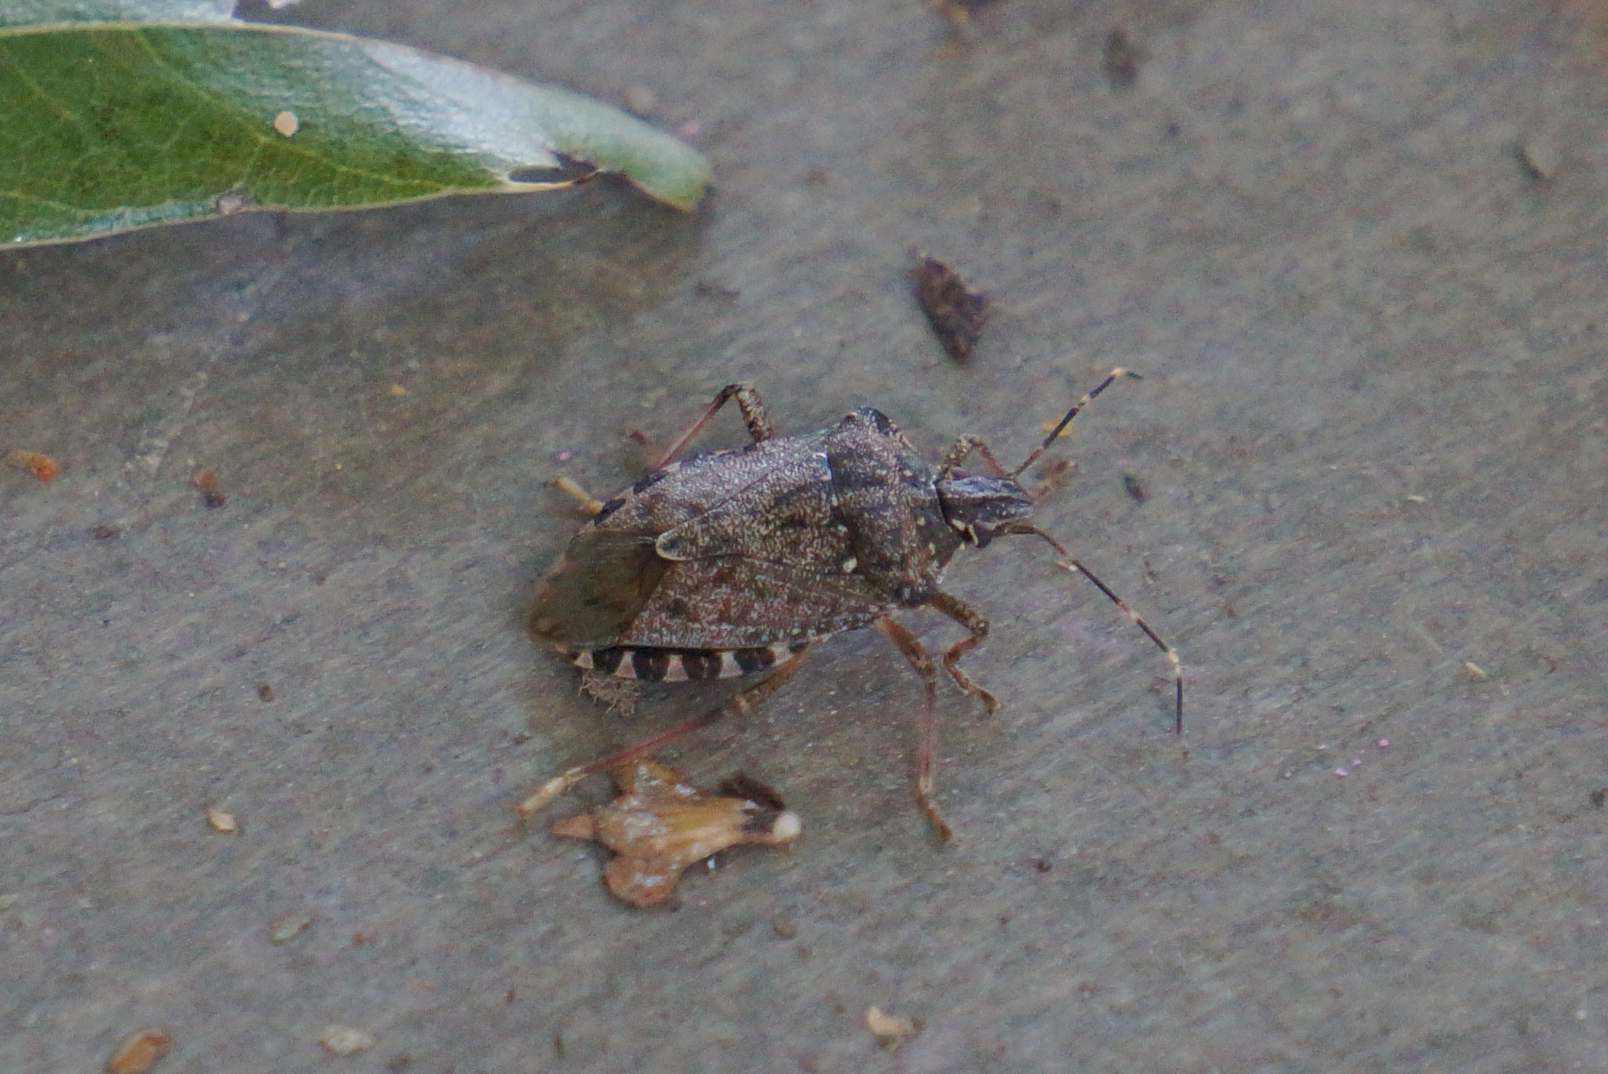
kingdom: Animalia
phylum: Arthropoda
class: Insecta
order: Hemiptera
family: Pentatomidae
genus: Halyomorpha
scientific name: Halyomorpha halys
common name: Brown marmorated stink bug
